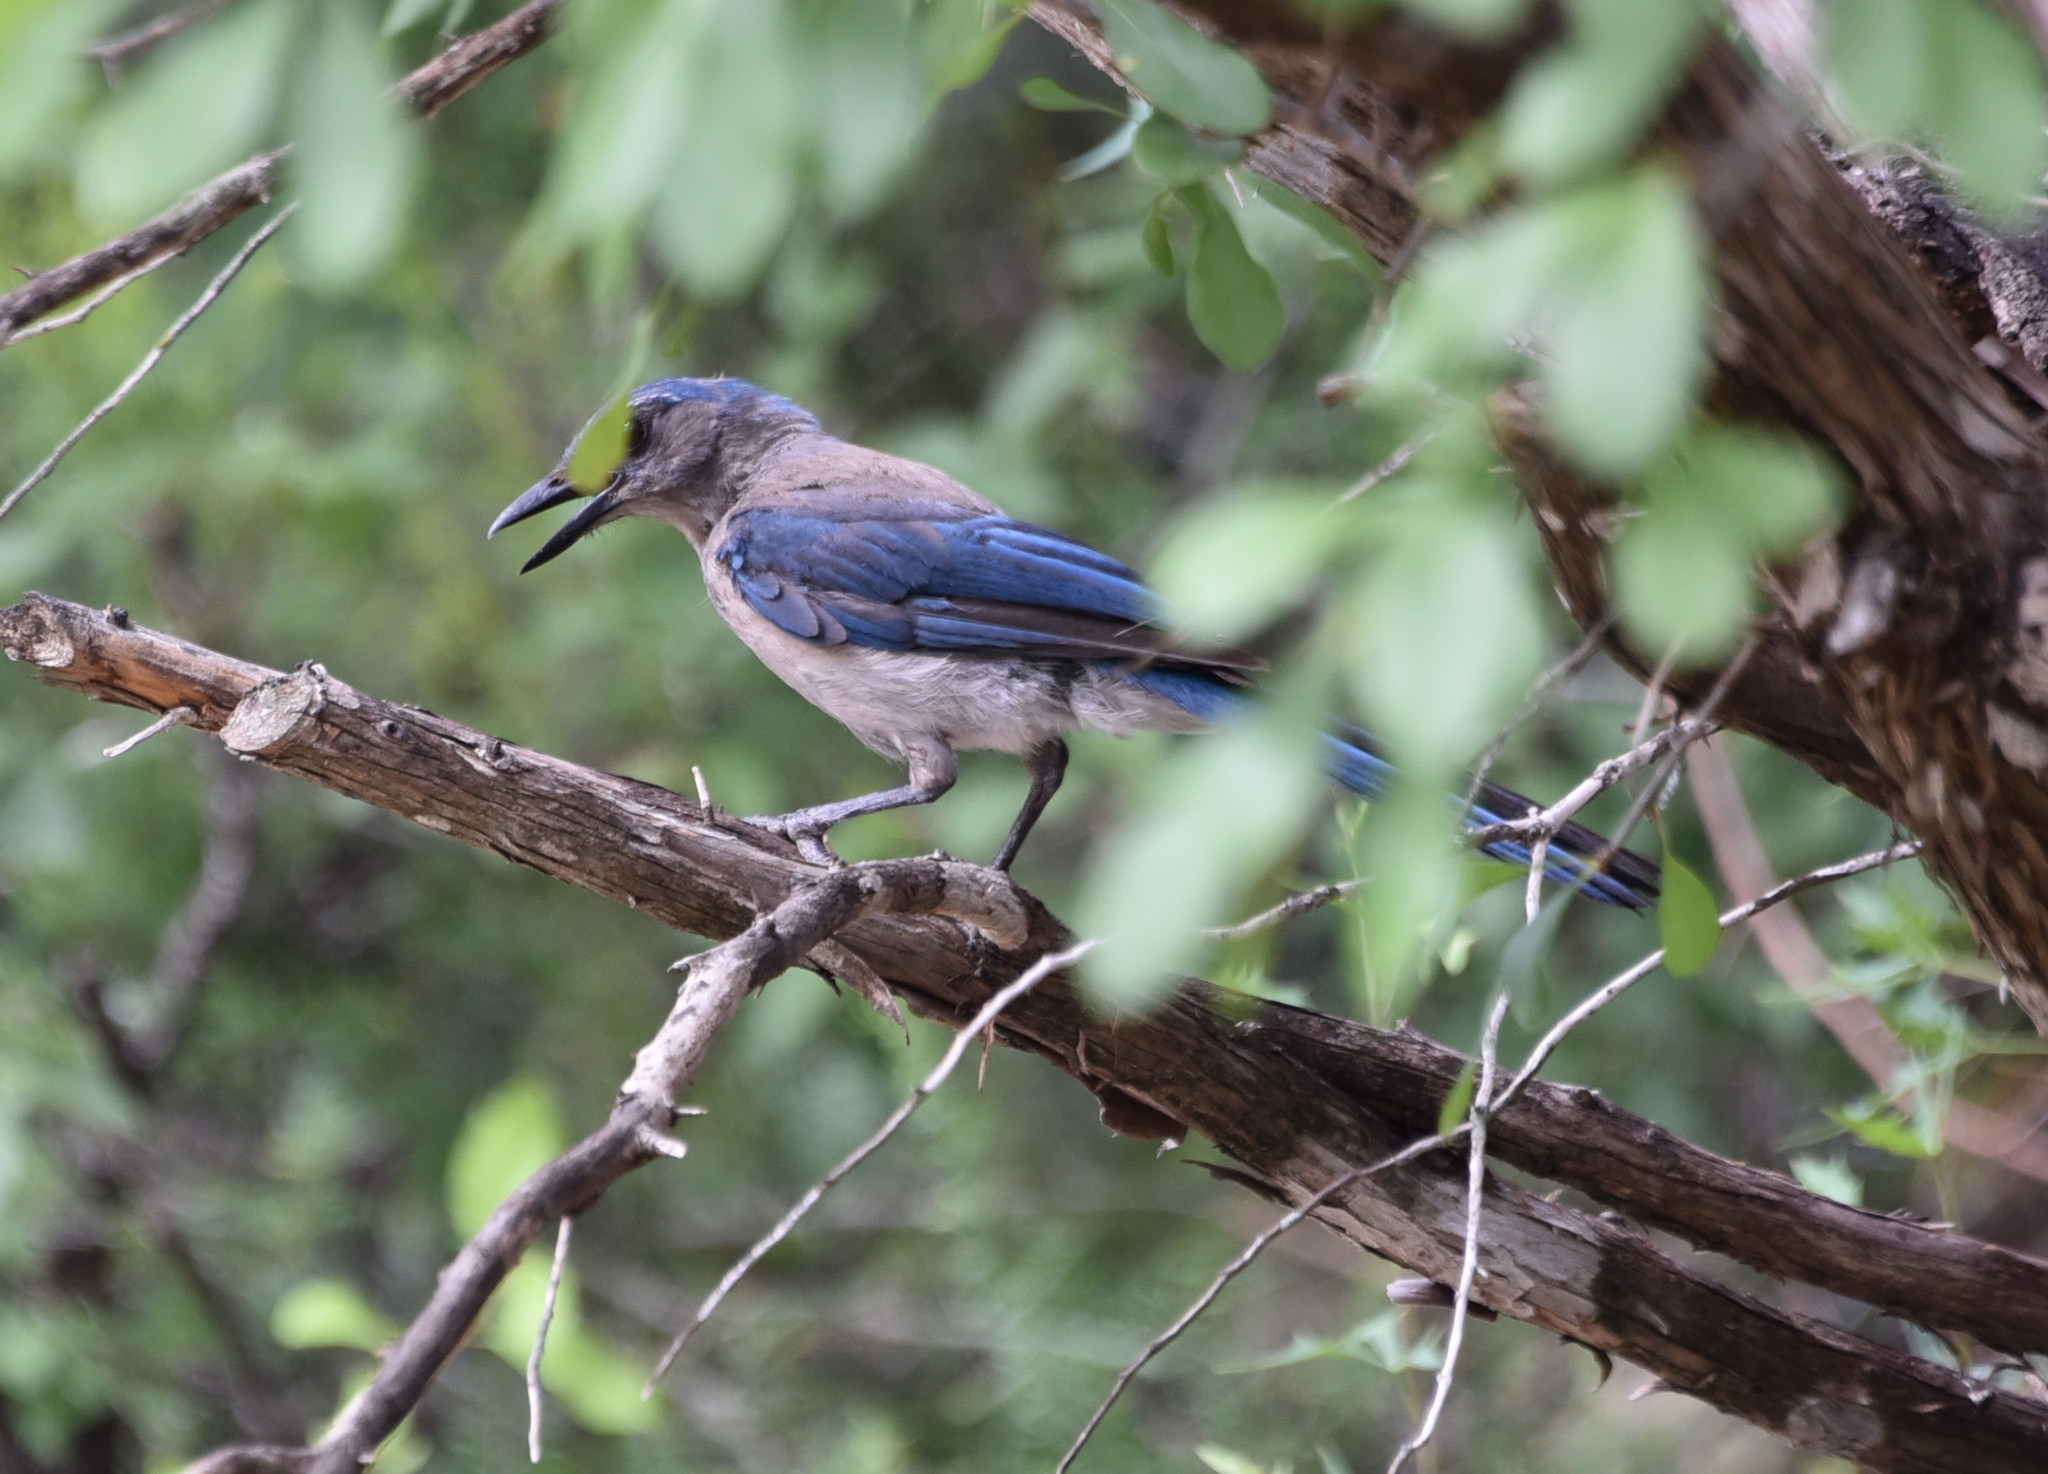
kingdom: Animalia
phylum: Chordata
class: Aves
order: Passeriformes
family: Corvidae
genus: Aphelocoma
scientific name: Aphelocoma woodhouseii
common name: Woodhouse's scrub-jay
